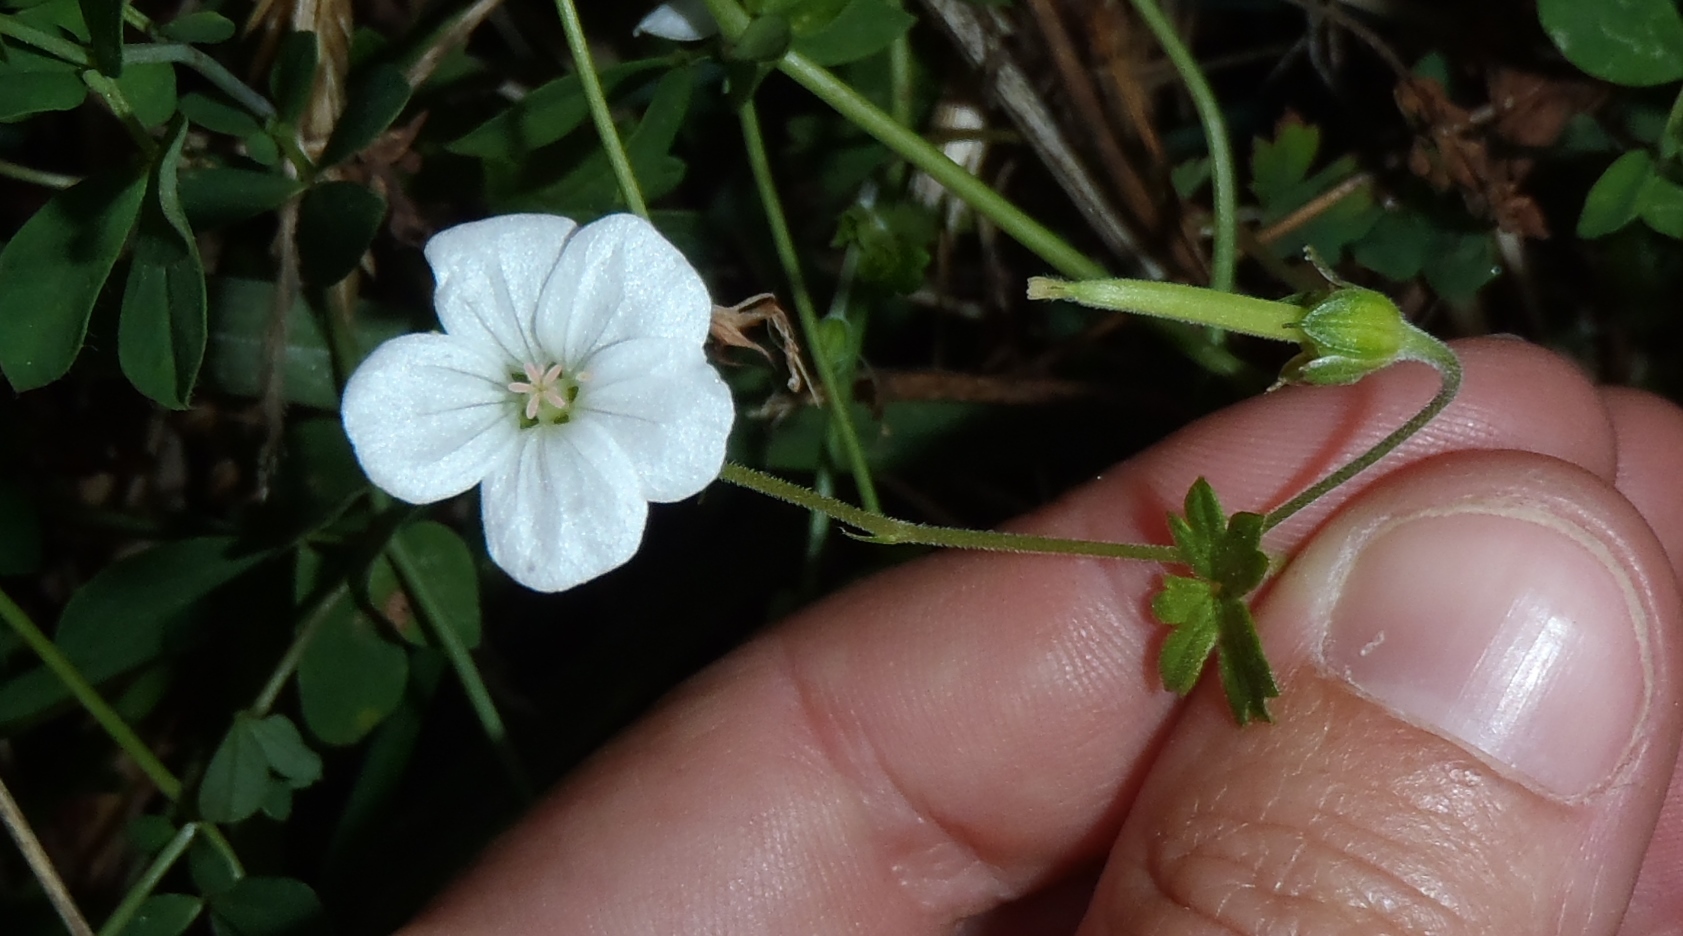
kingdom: Plantae
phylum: Tracheophyta
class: Magnoliopsida
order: Geraniales
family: Geraniaceae
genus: Geranium
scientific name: Geranium
